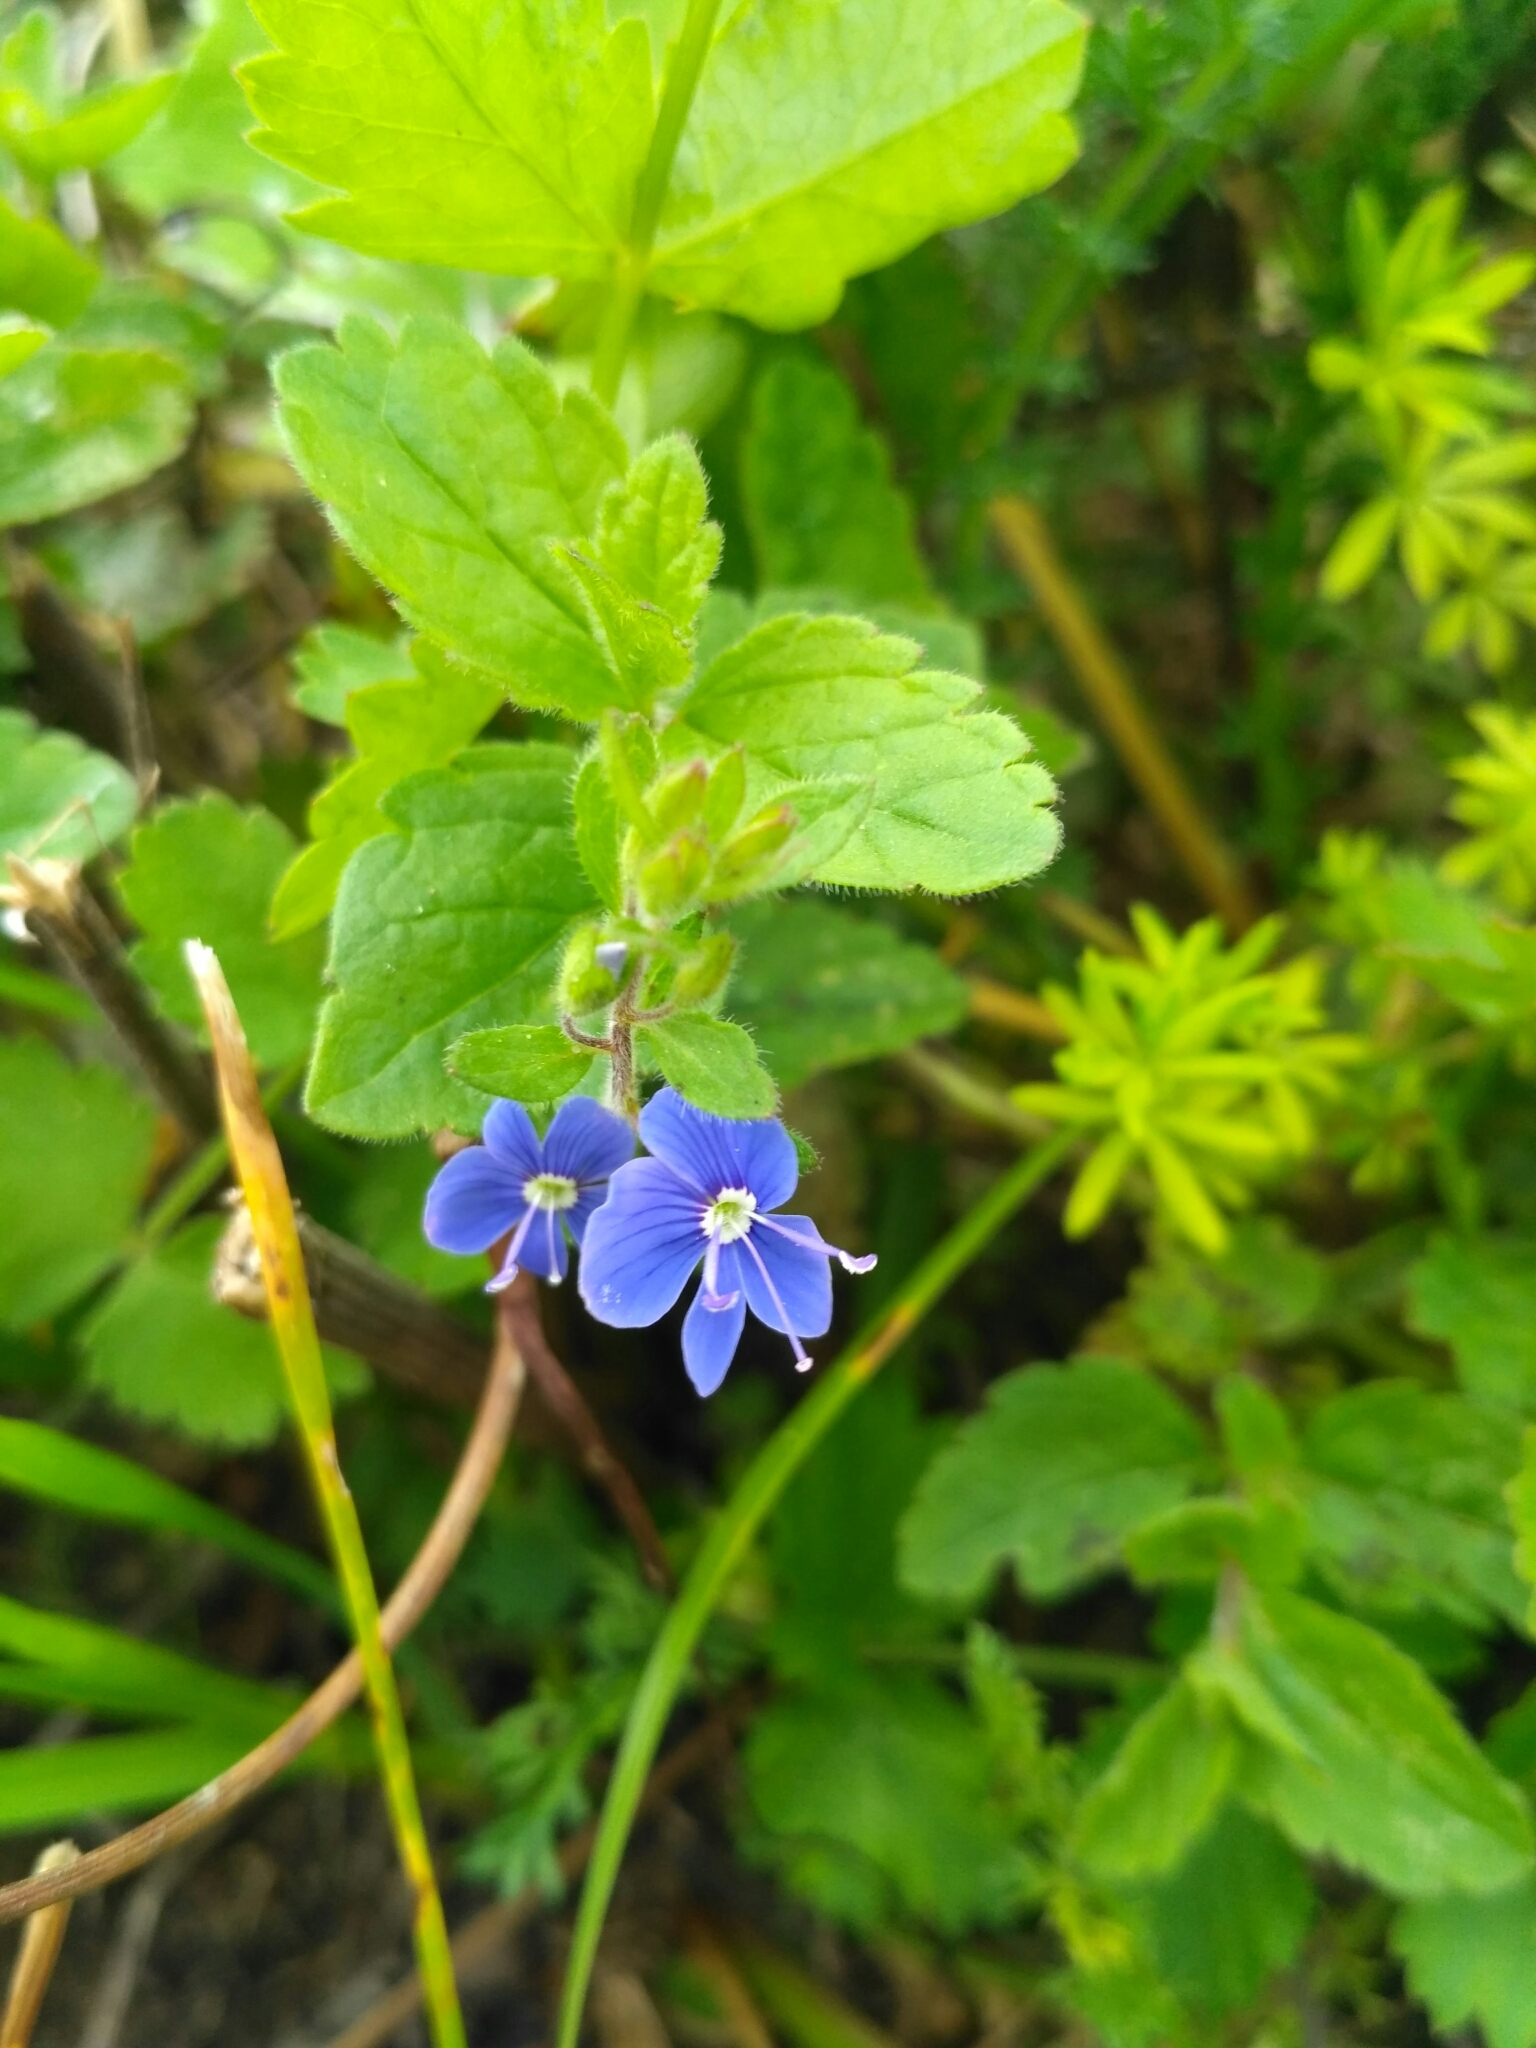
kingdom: Plantae
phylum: Tracheophyta
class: Magnoliopsida
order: Lamiales
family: Plantaginaceae
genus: Veronica
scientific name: Veronica chamaedrys
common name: Germander speedwell
